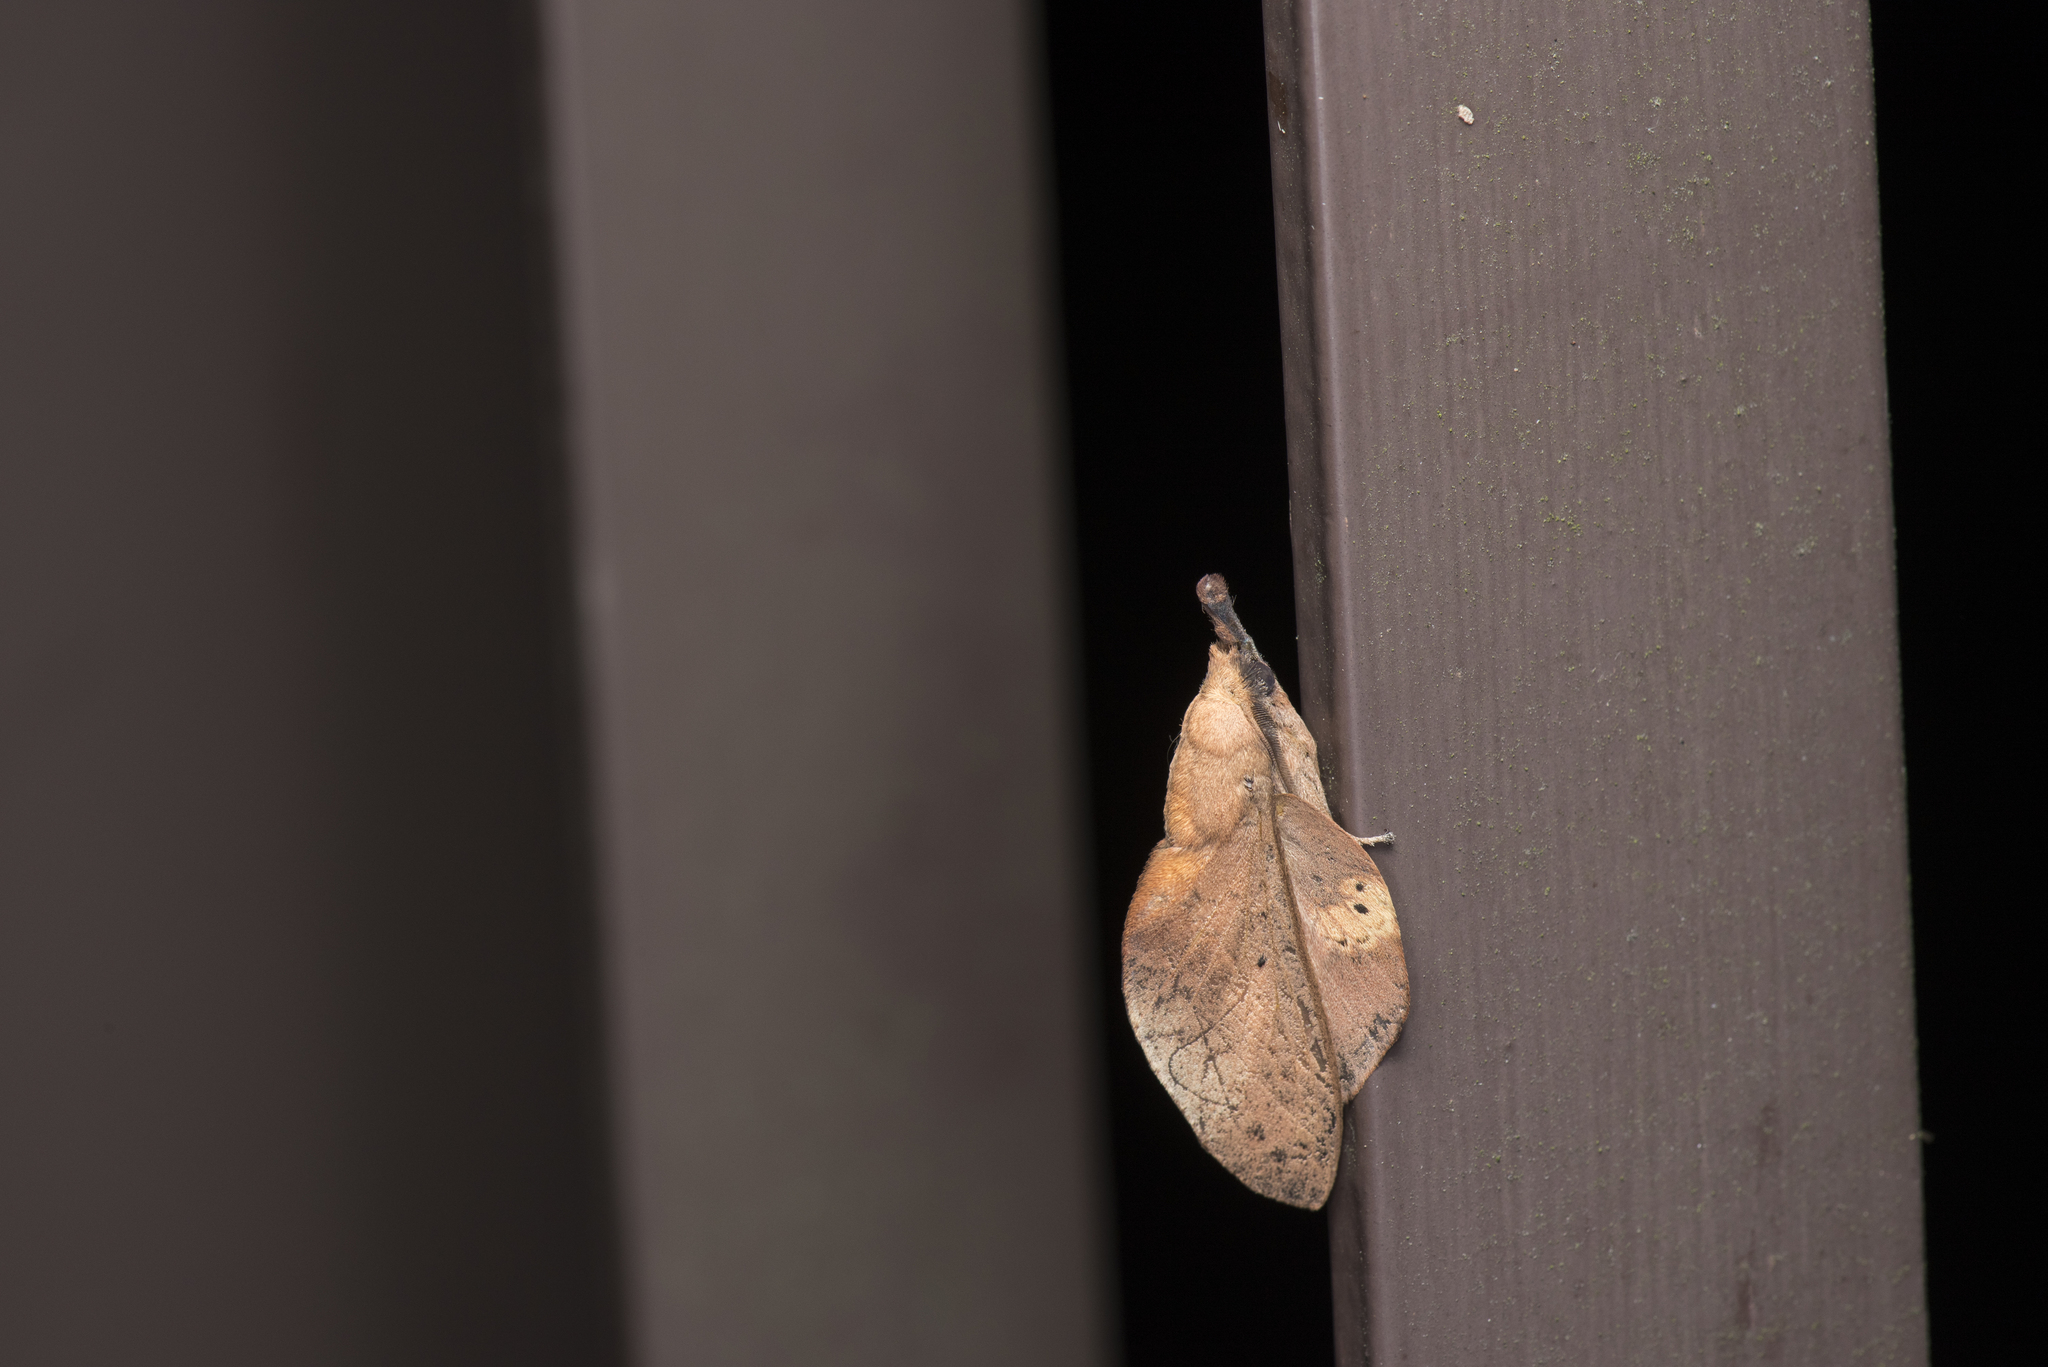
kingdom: Animalia
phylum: Arthropoda
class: Insecta
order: Lepidoptera
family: Lasiocampidae
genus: Gastropacha
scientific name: Gastropacha pardale
